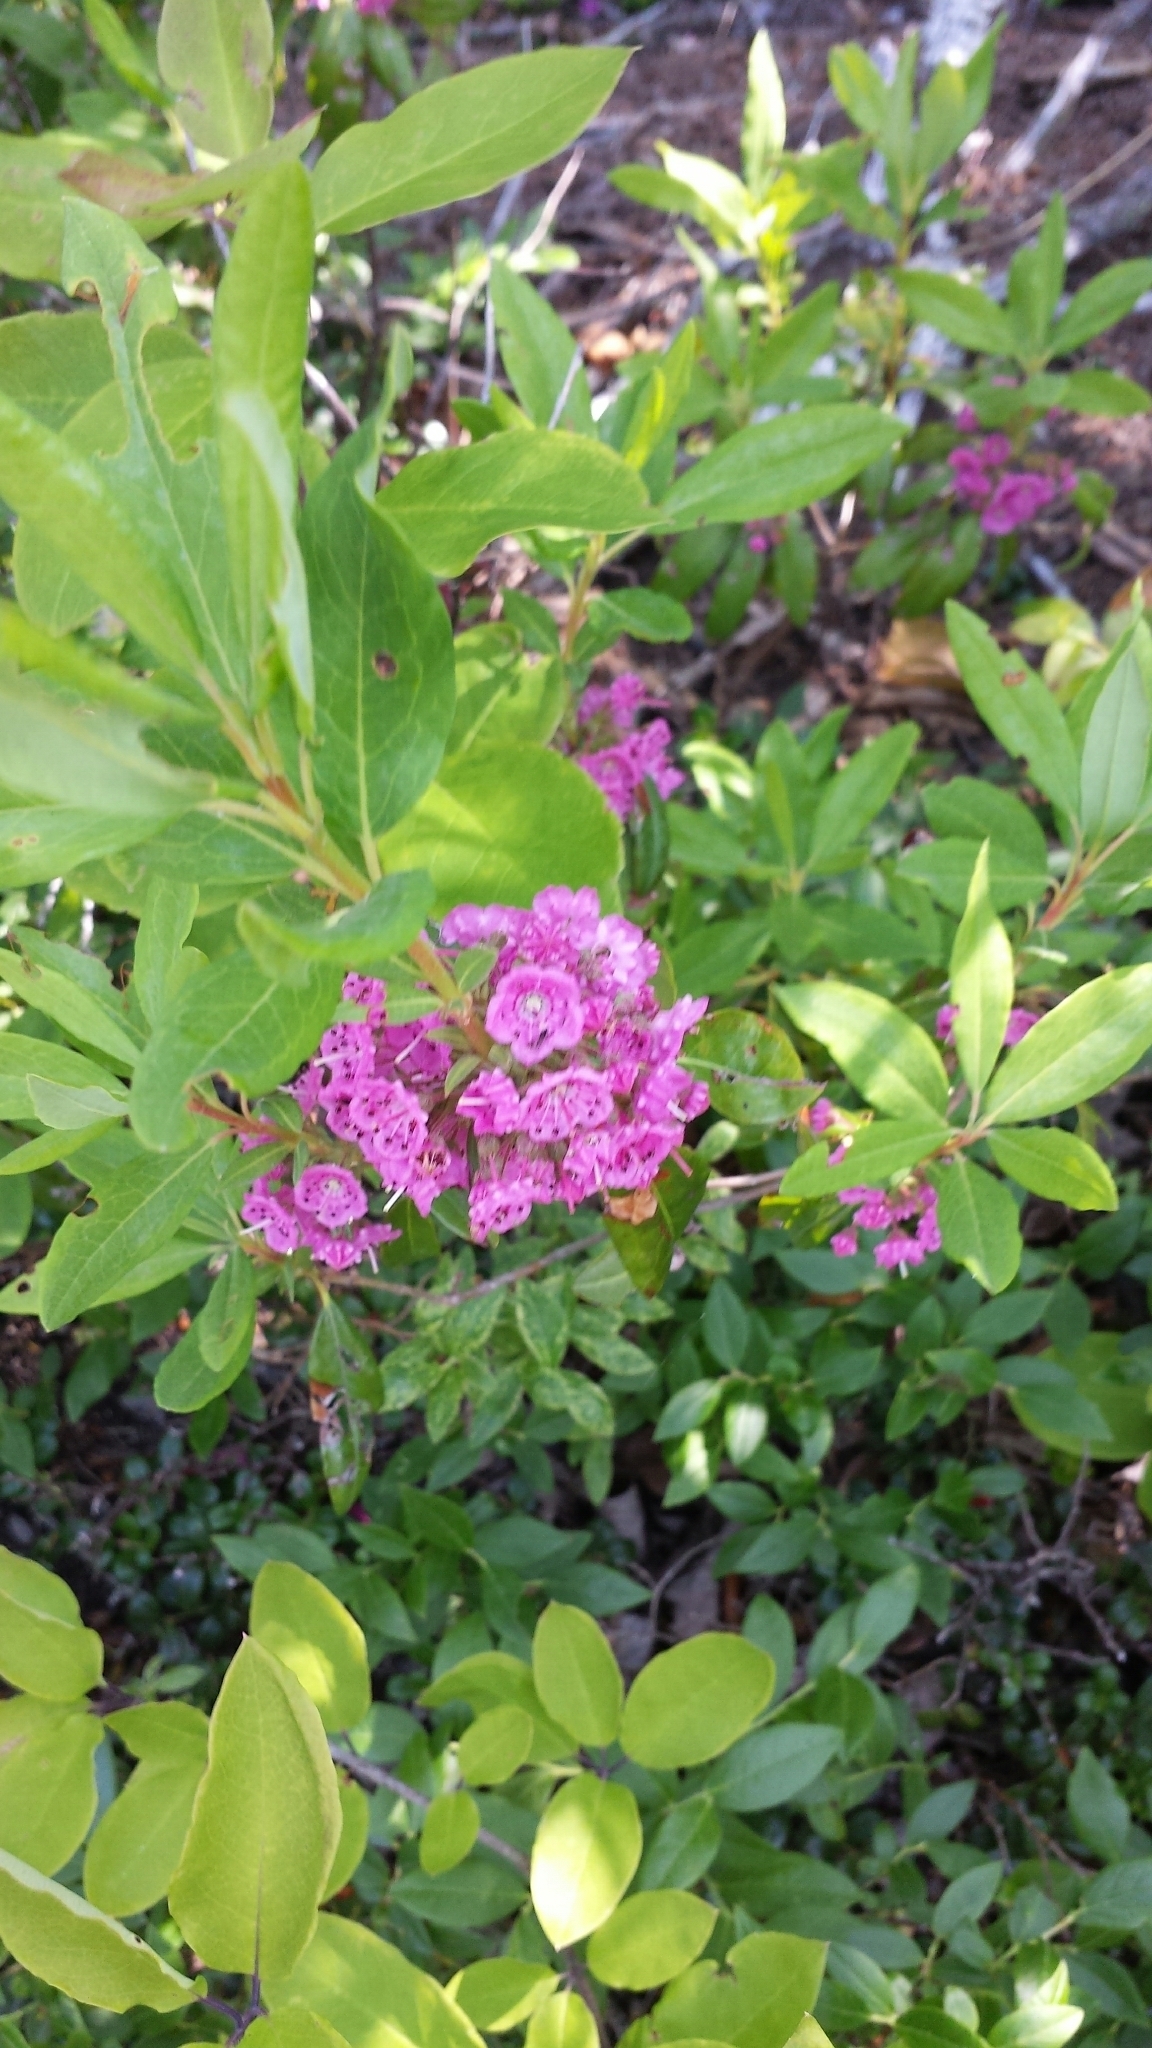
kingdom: Plantae
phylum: Tracheophyta
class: Magnoliopsida
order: Ericales
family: Ericaceae
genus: Kalmia
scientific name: Kalmia angustifolia
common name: Sheep-laurel
